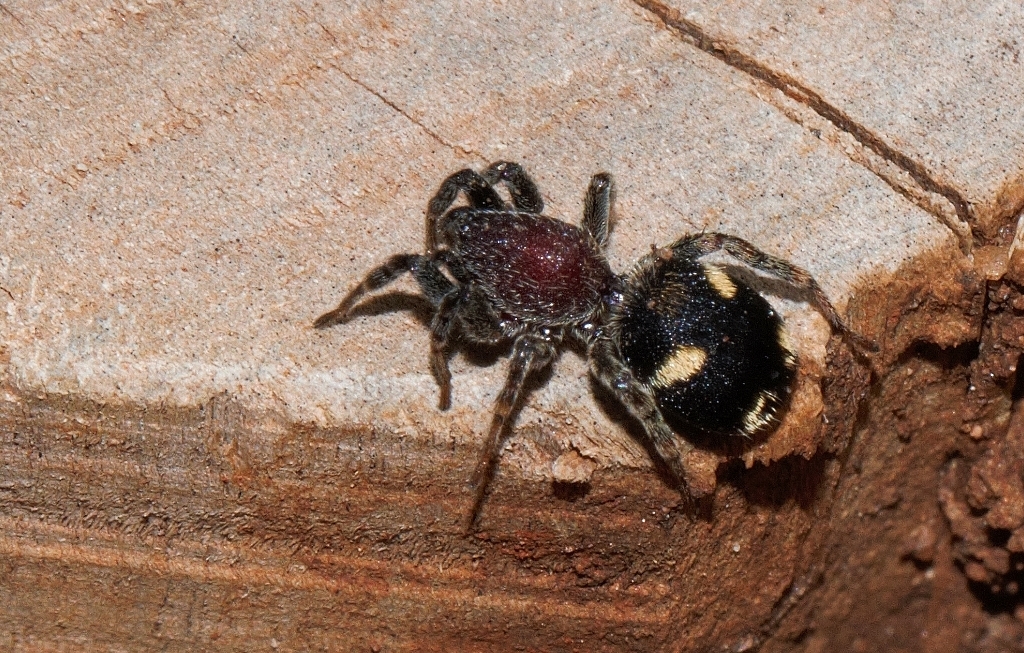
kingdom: Animalia
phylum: Arthropoda
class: Arachnida
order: Araneae
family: Corinnidae
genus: Graptartia
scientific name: Graptartia granulosa
